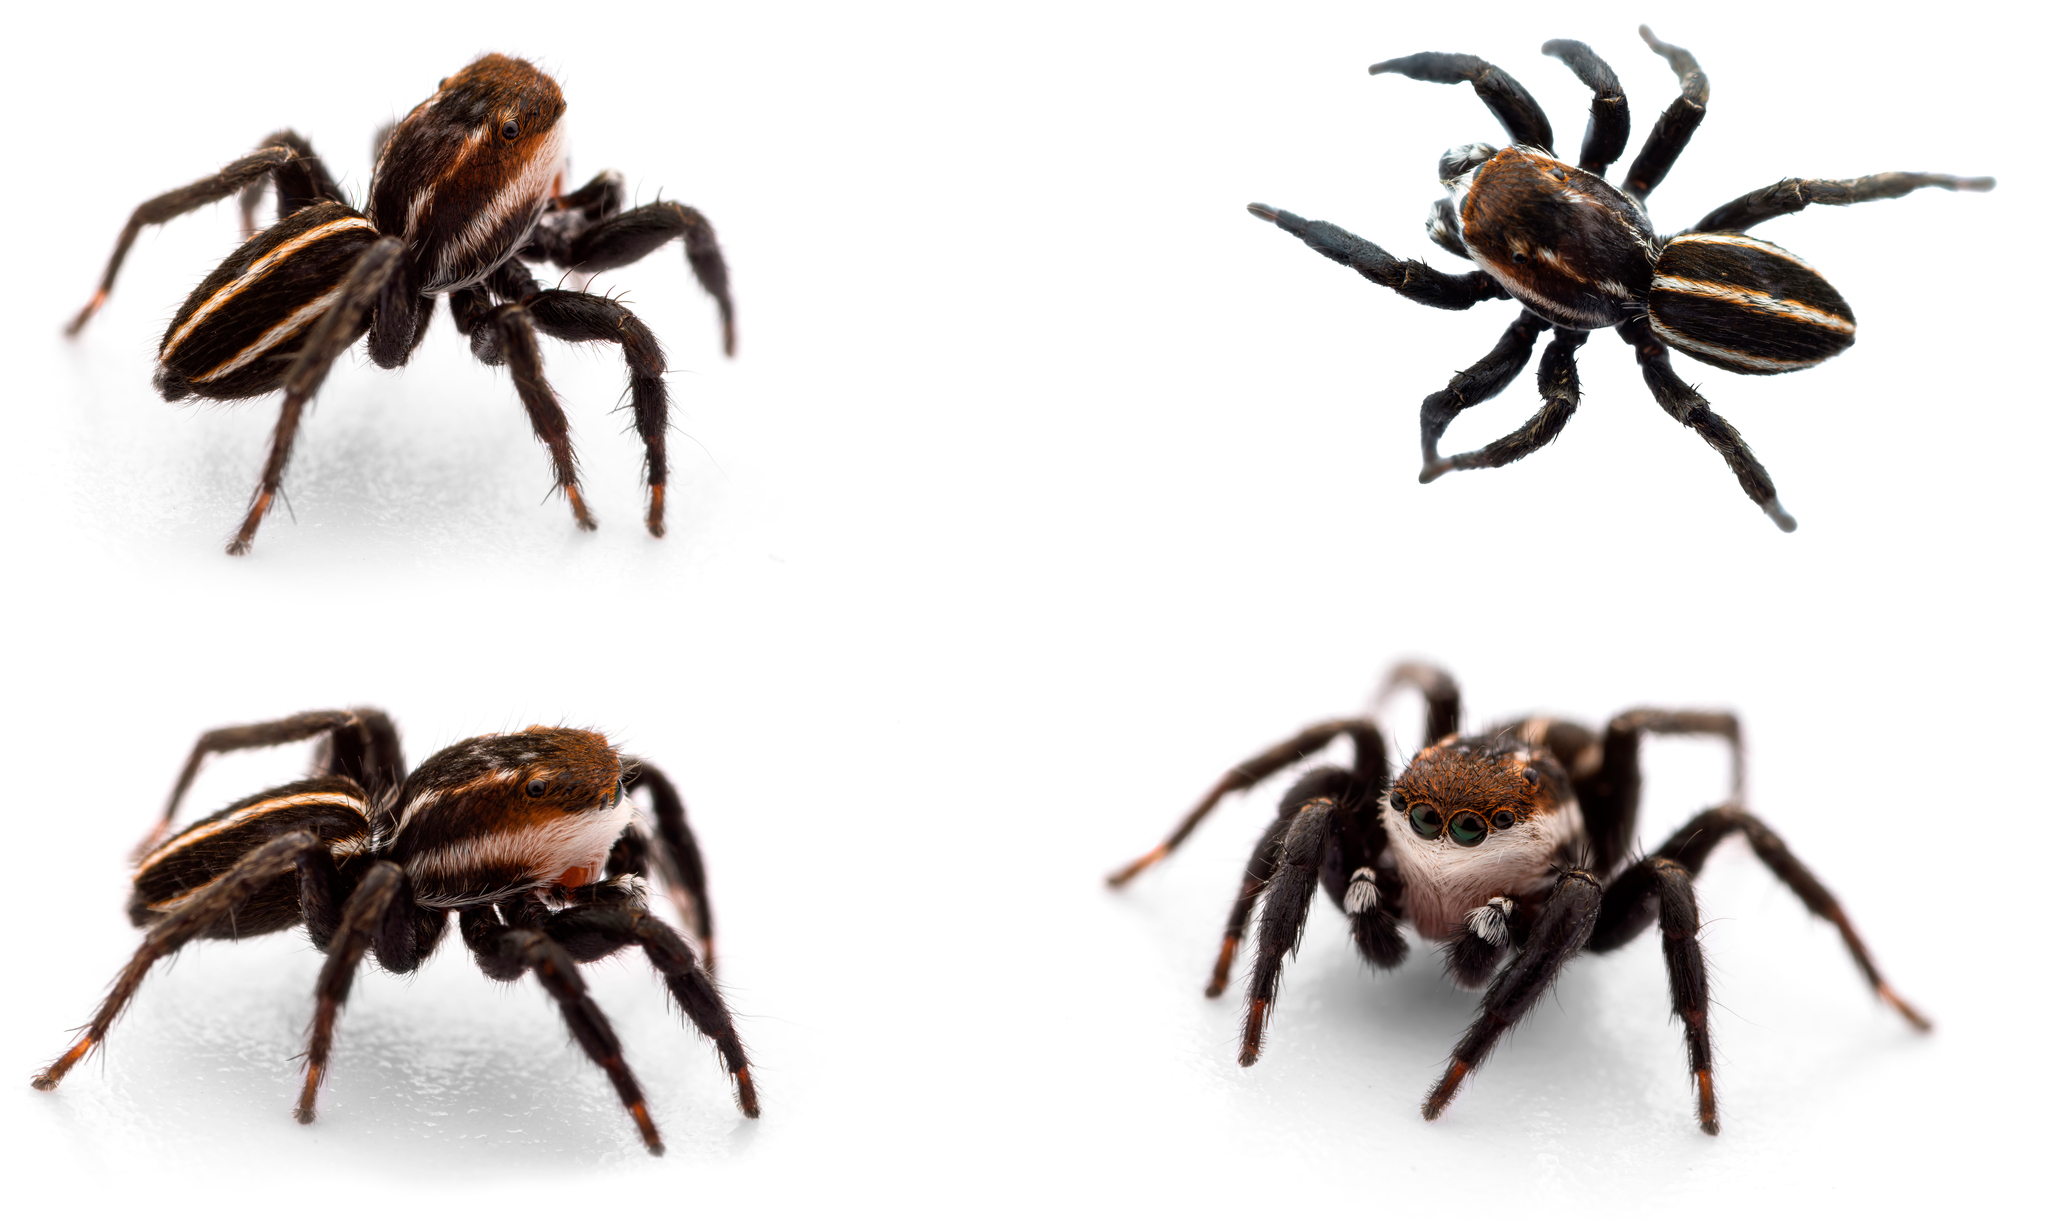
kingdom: Animalia
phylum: Arthropoda
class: Arachnida
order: Araneae
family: Salticidae
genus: Phlegra
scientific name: Phlegra bresnieri
